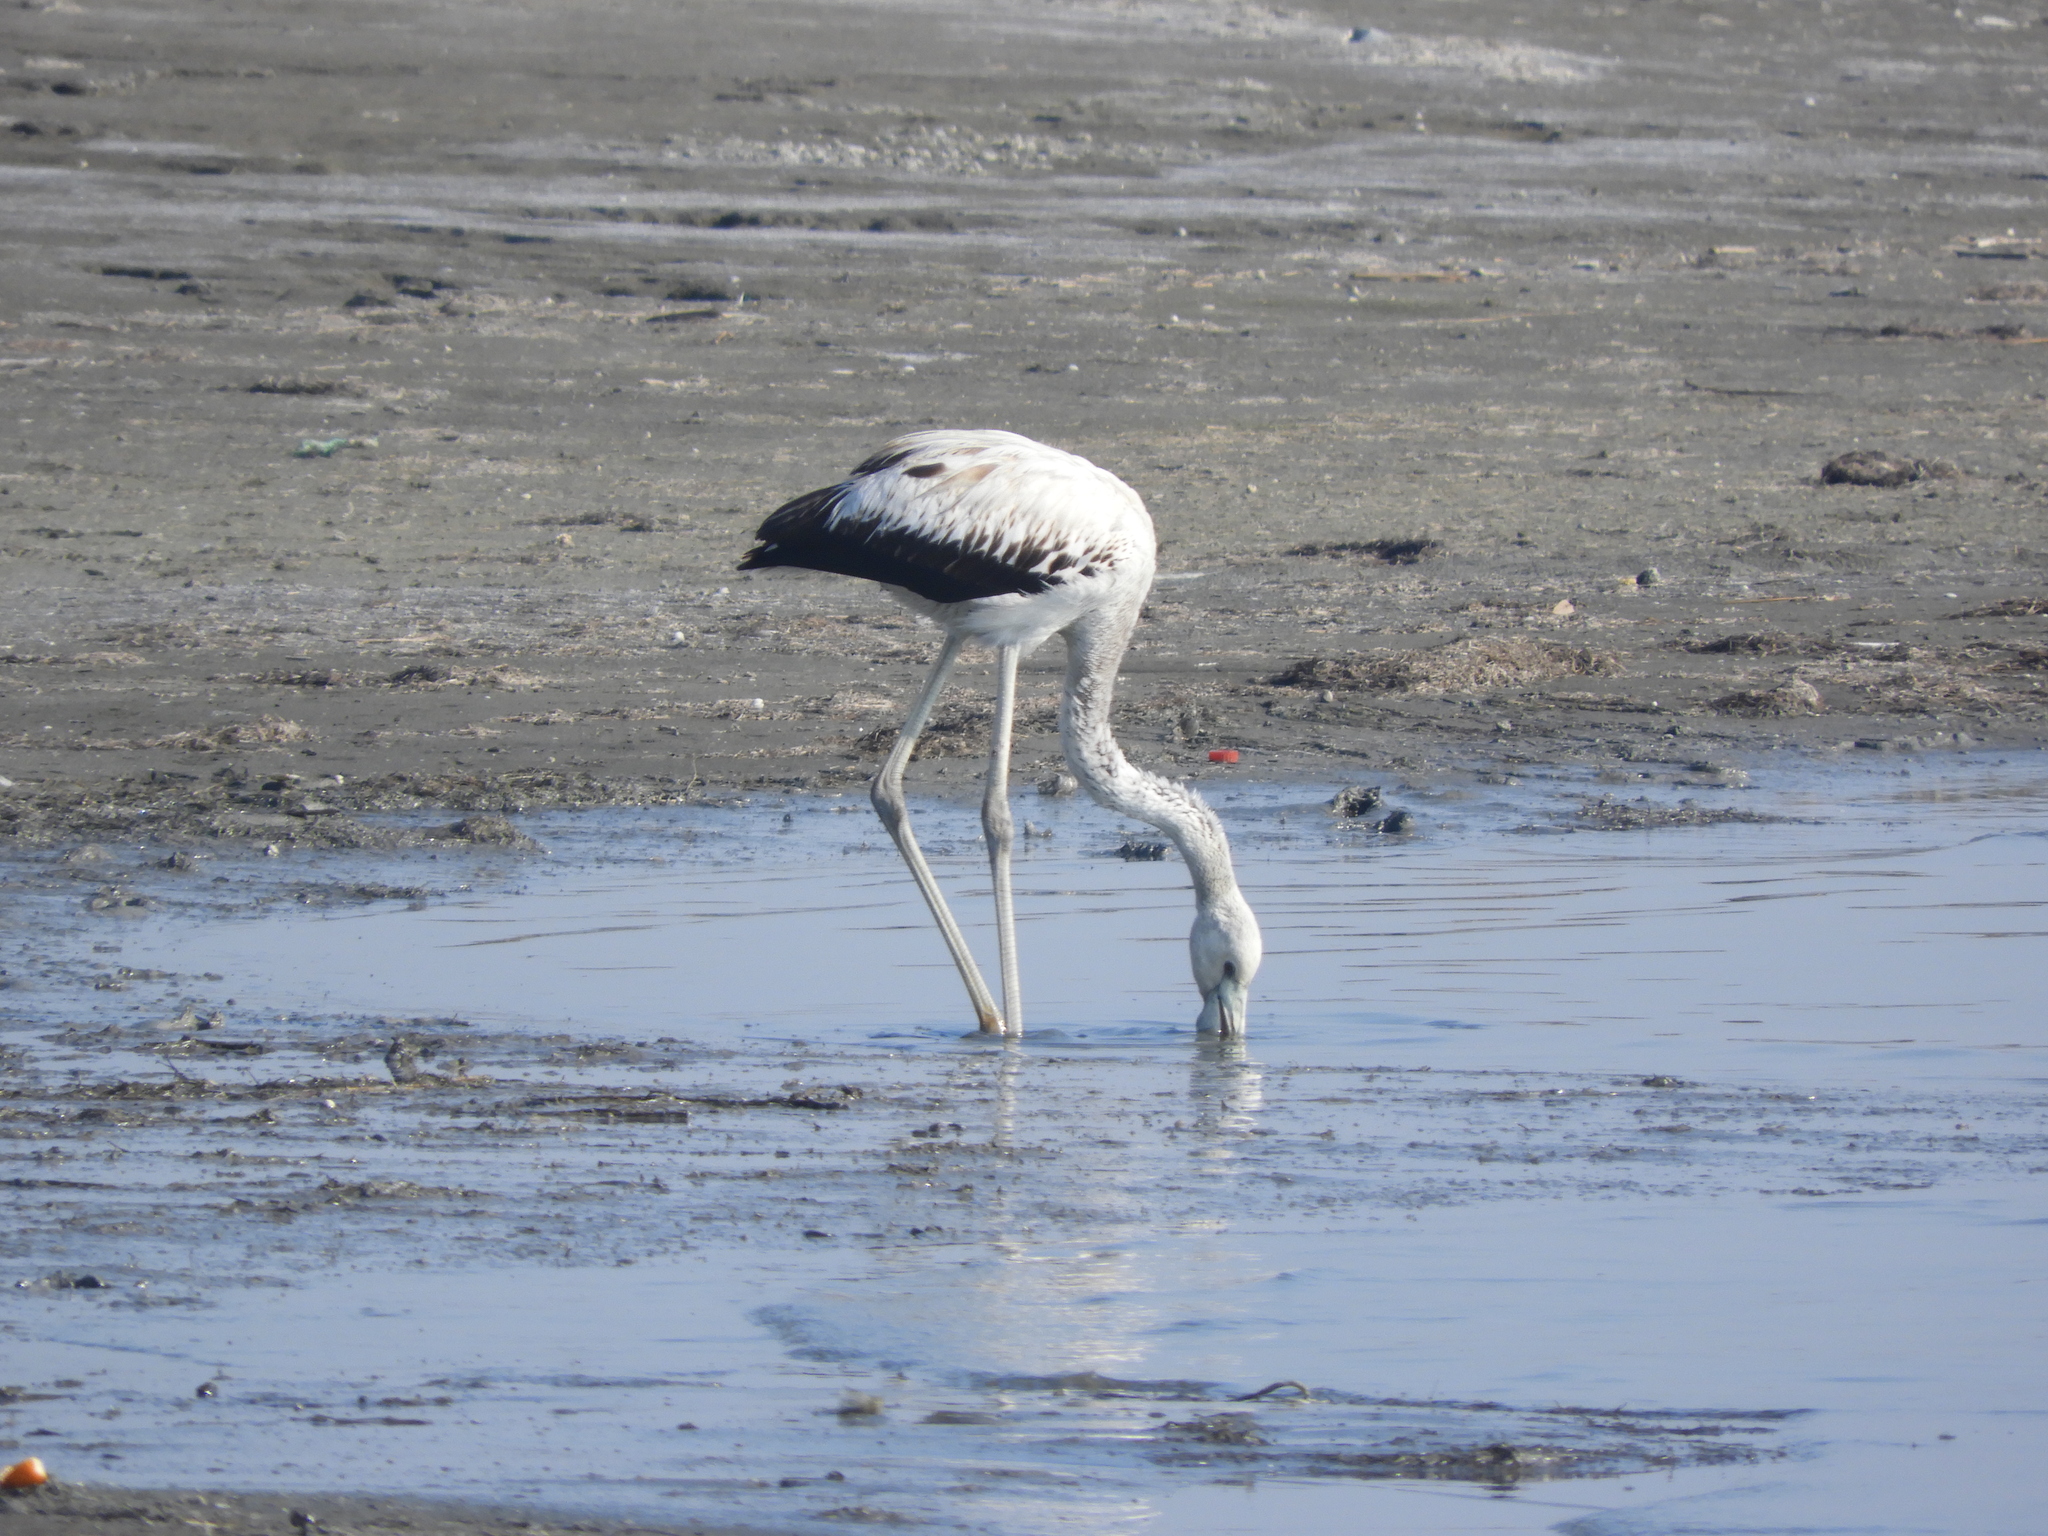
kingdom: Animalia
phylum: Chordata
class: Aves
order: Phoenicopteriformes
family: Phoenicopteridae
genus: Phoenicopterus
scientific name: Phoenicopterus roseus
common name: Greater flamingo
